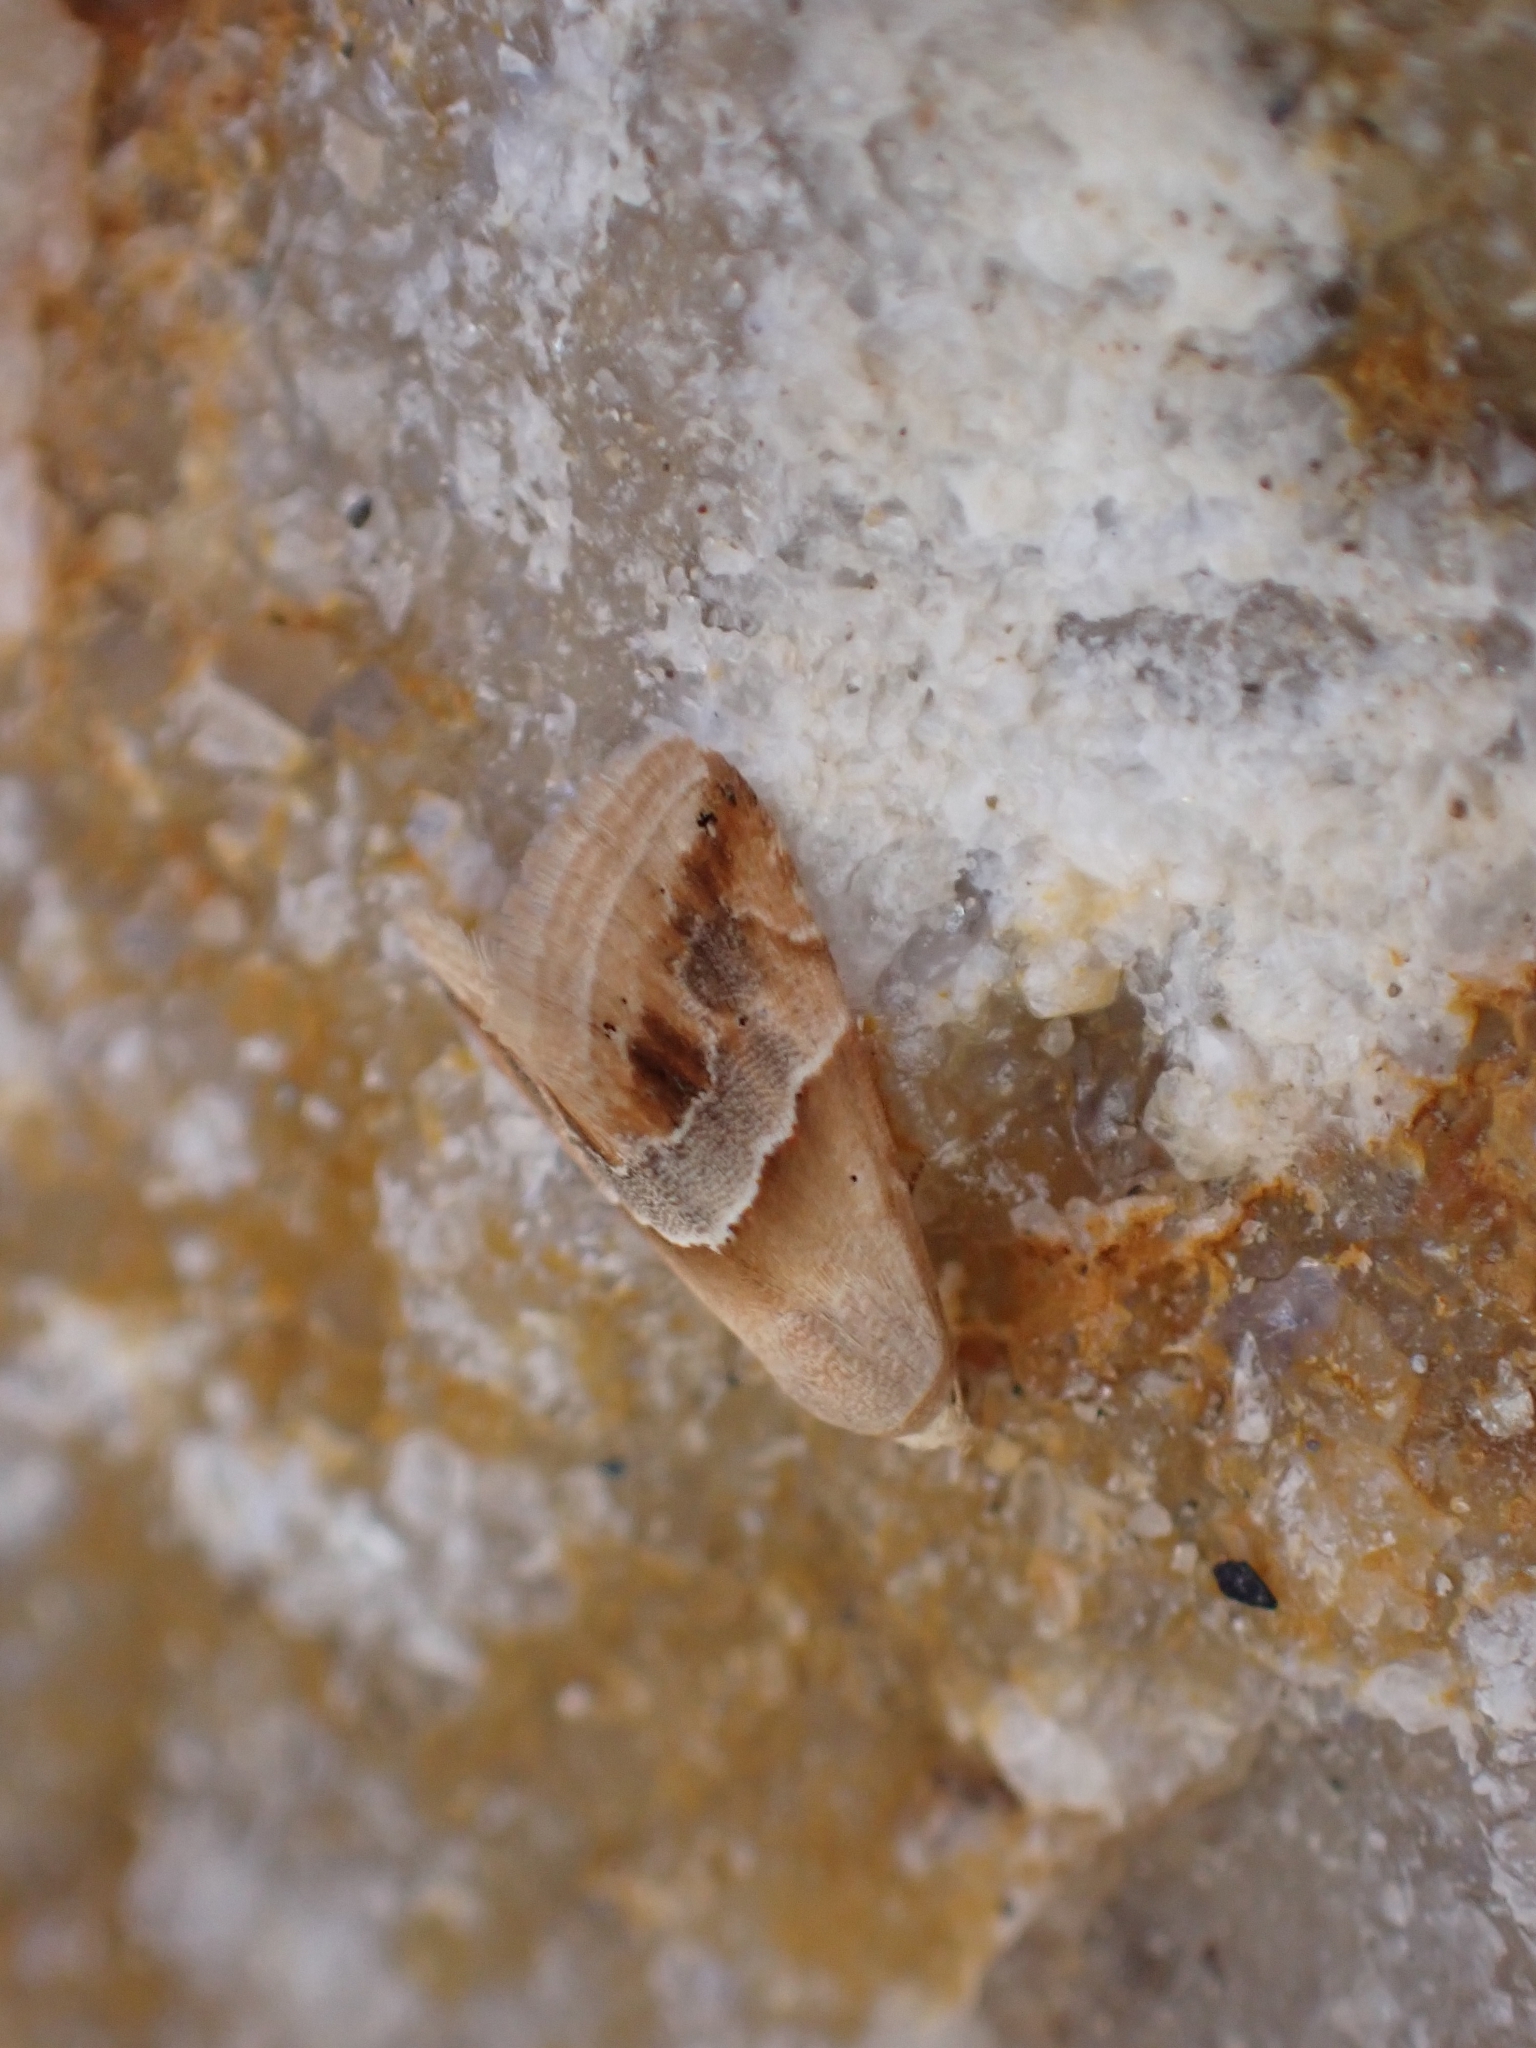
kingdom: Animalia
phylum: Arthropoda
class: Insecta
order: Lepidoptera
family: Noctuidae
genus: Eublemma
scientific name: Eublemma parva
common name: Small marbled
